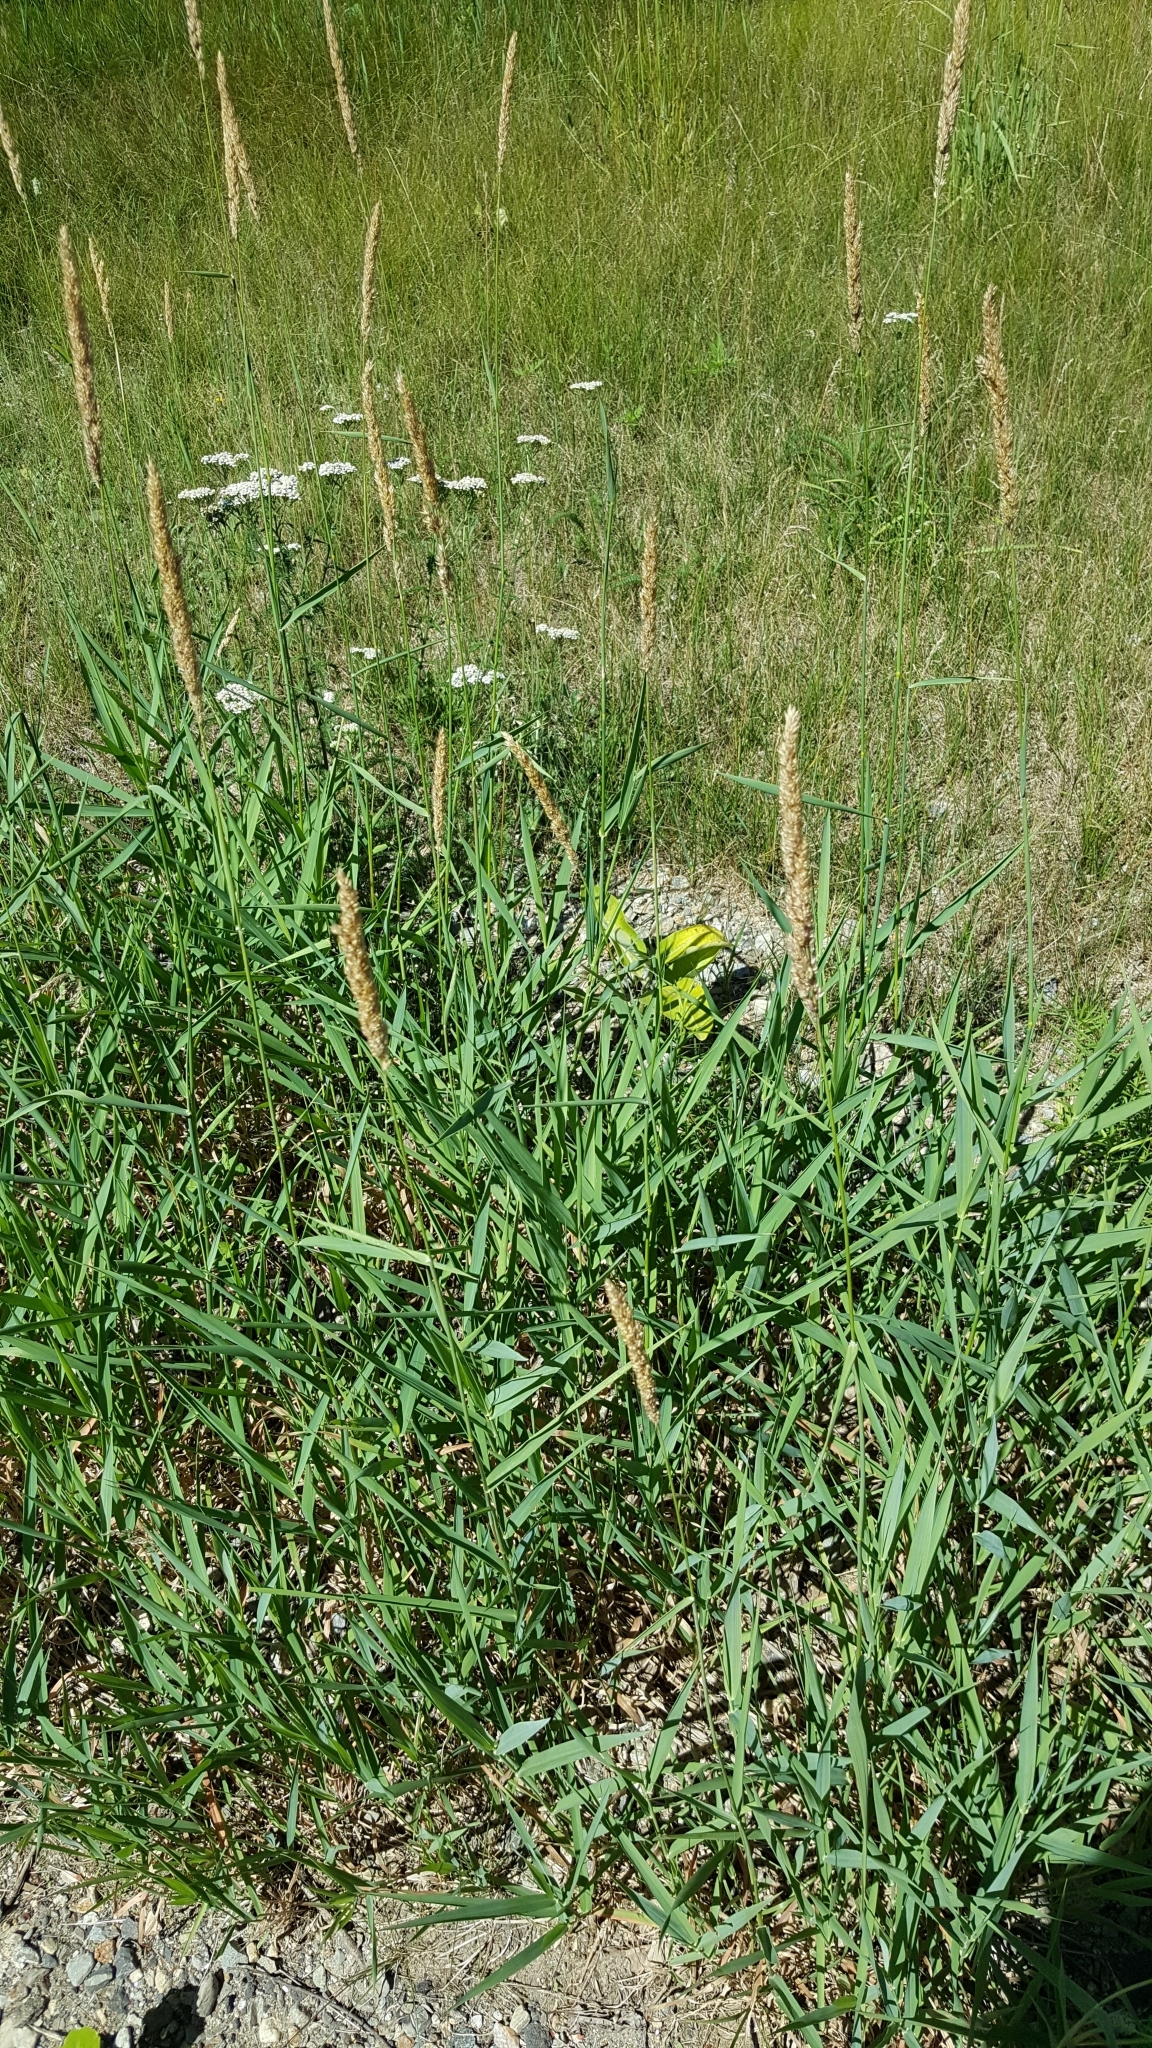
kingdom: Plantae
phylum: Tracheophyta
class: Liliopsida
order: Poales
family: Poaceae
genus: Phalaris
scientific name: Phalaris arundinacea
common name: Reed canary-grass
